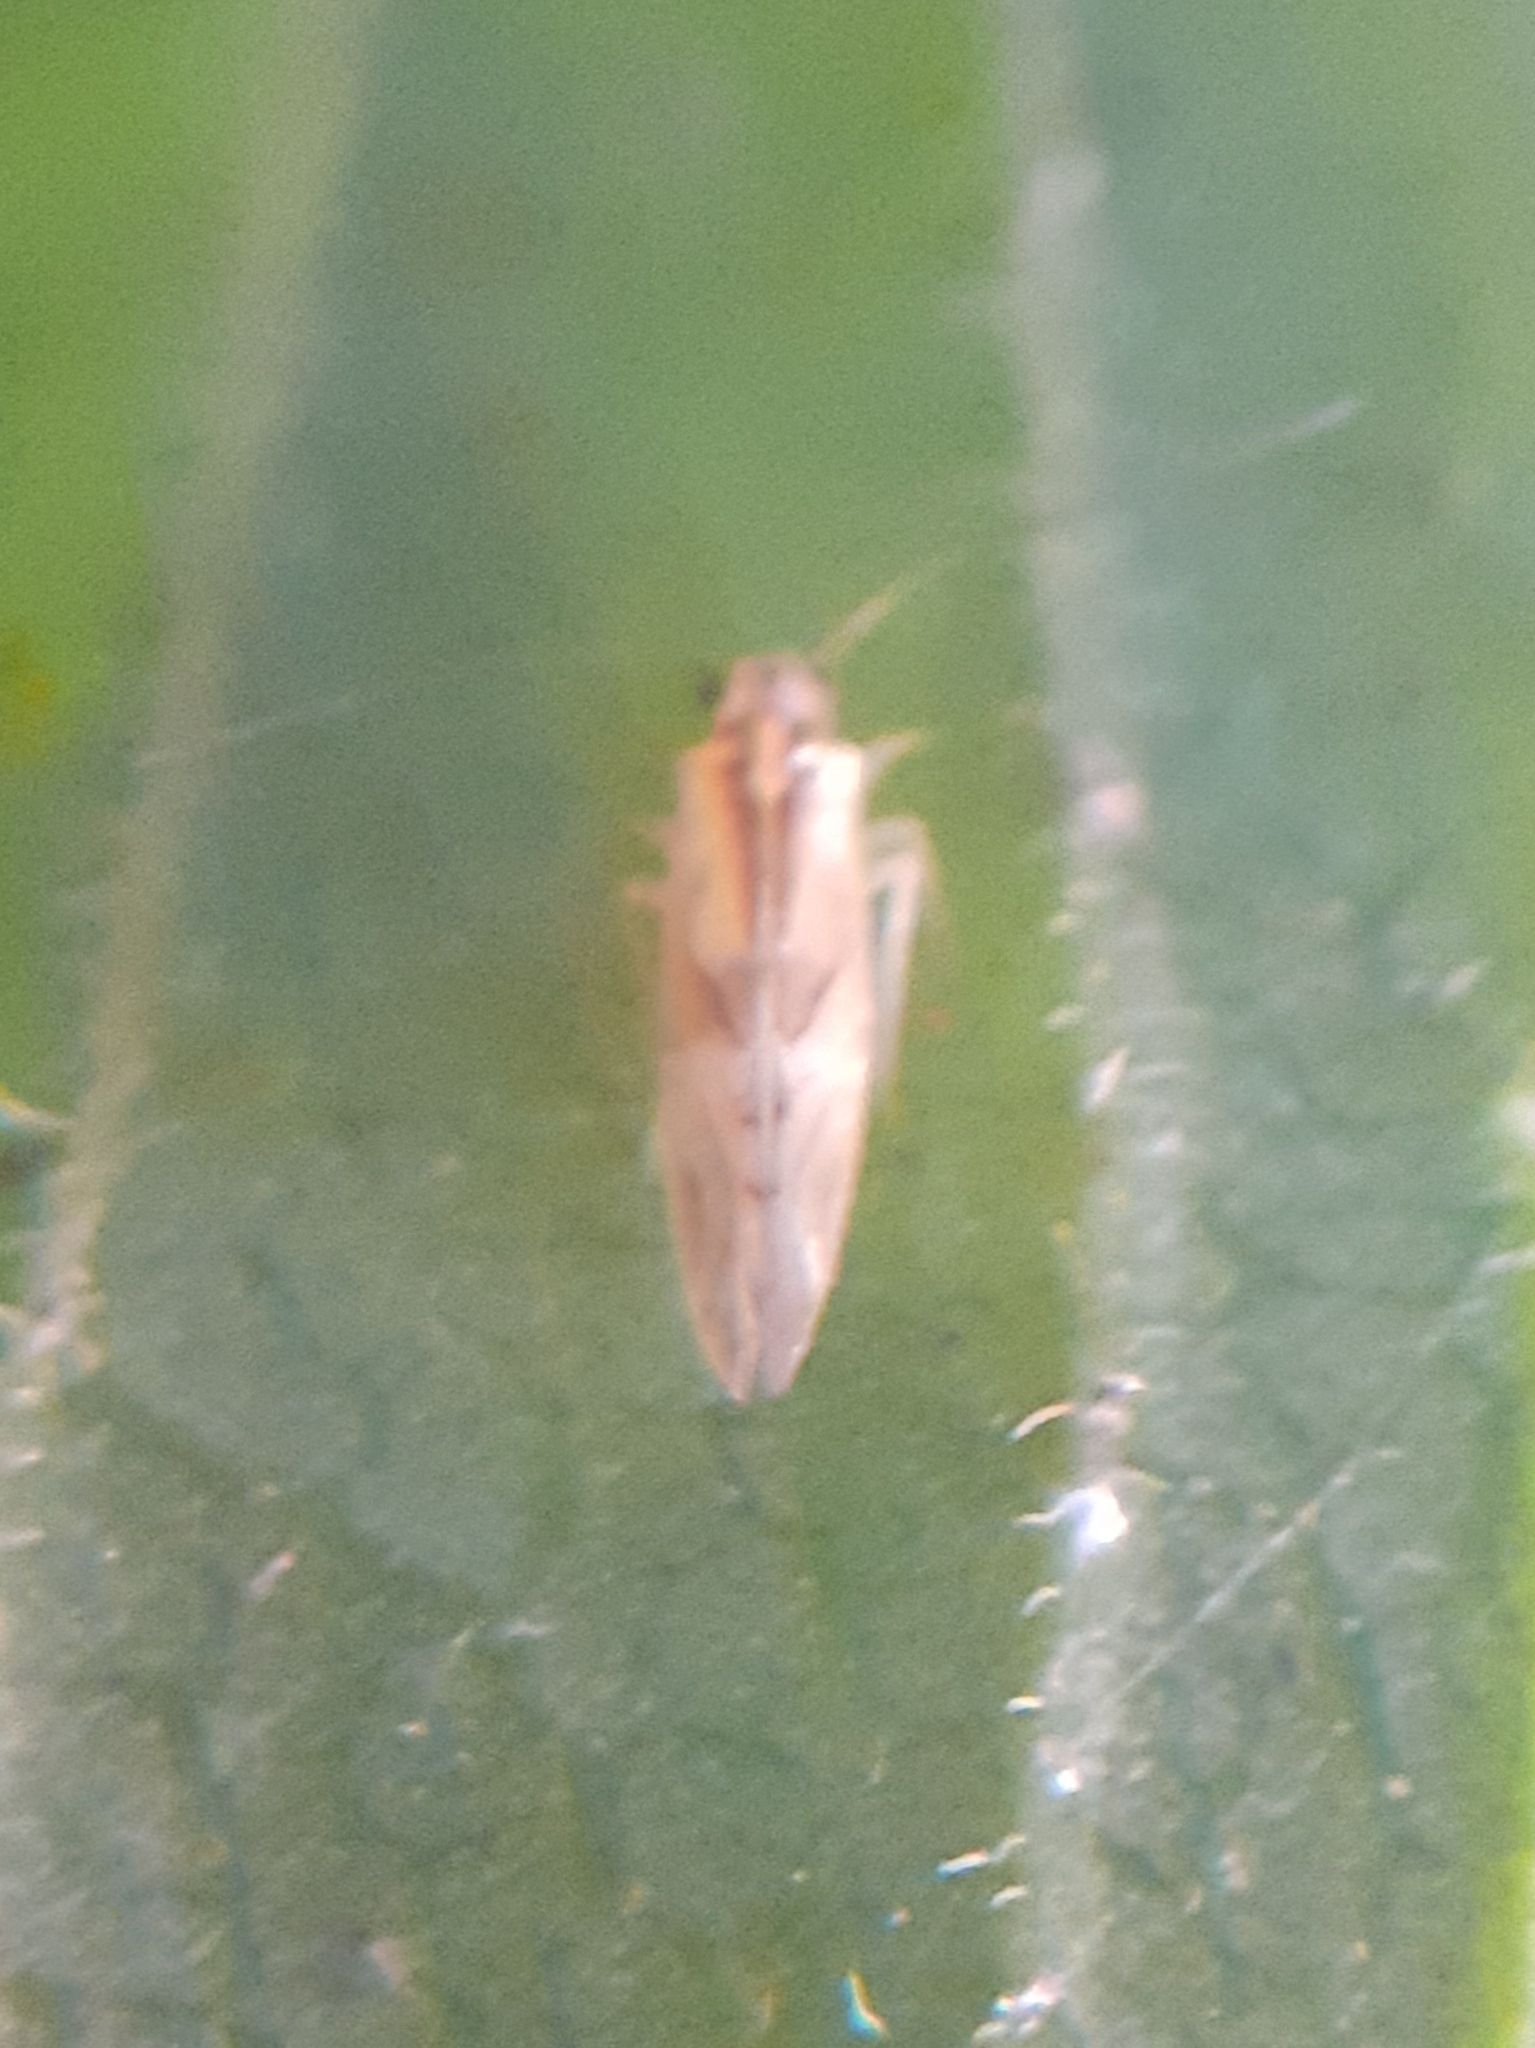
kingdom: Animalia
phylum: Arthropoda
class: Insecta
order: Psocodea
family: Caeciliusidae
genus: Valenzuela
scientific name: Valenzuela flavidus
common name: Yellow barklouse
